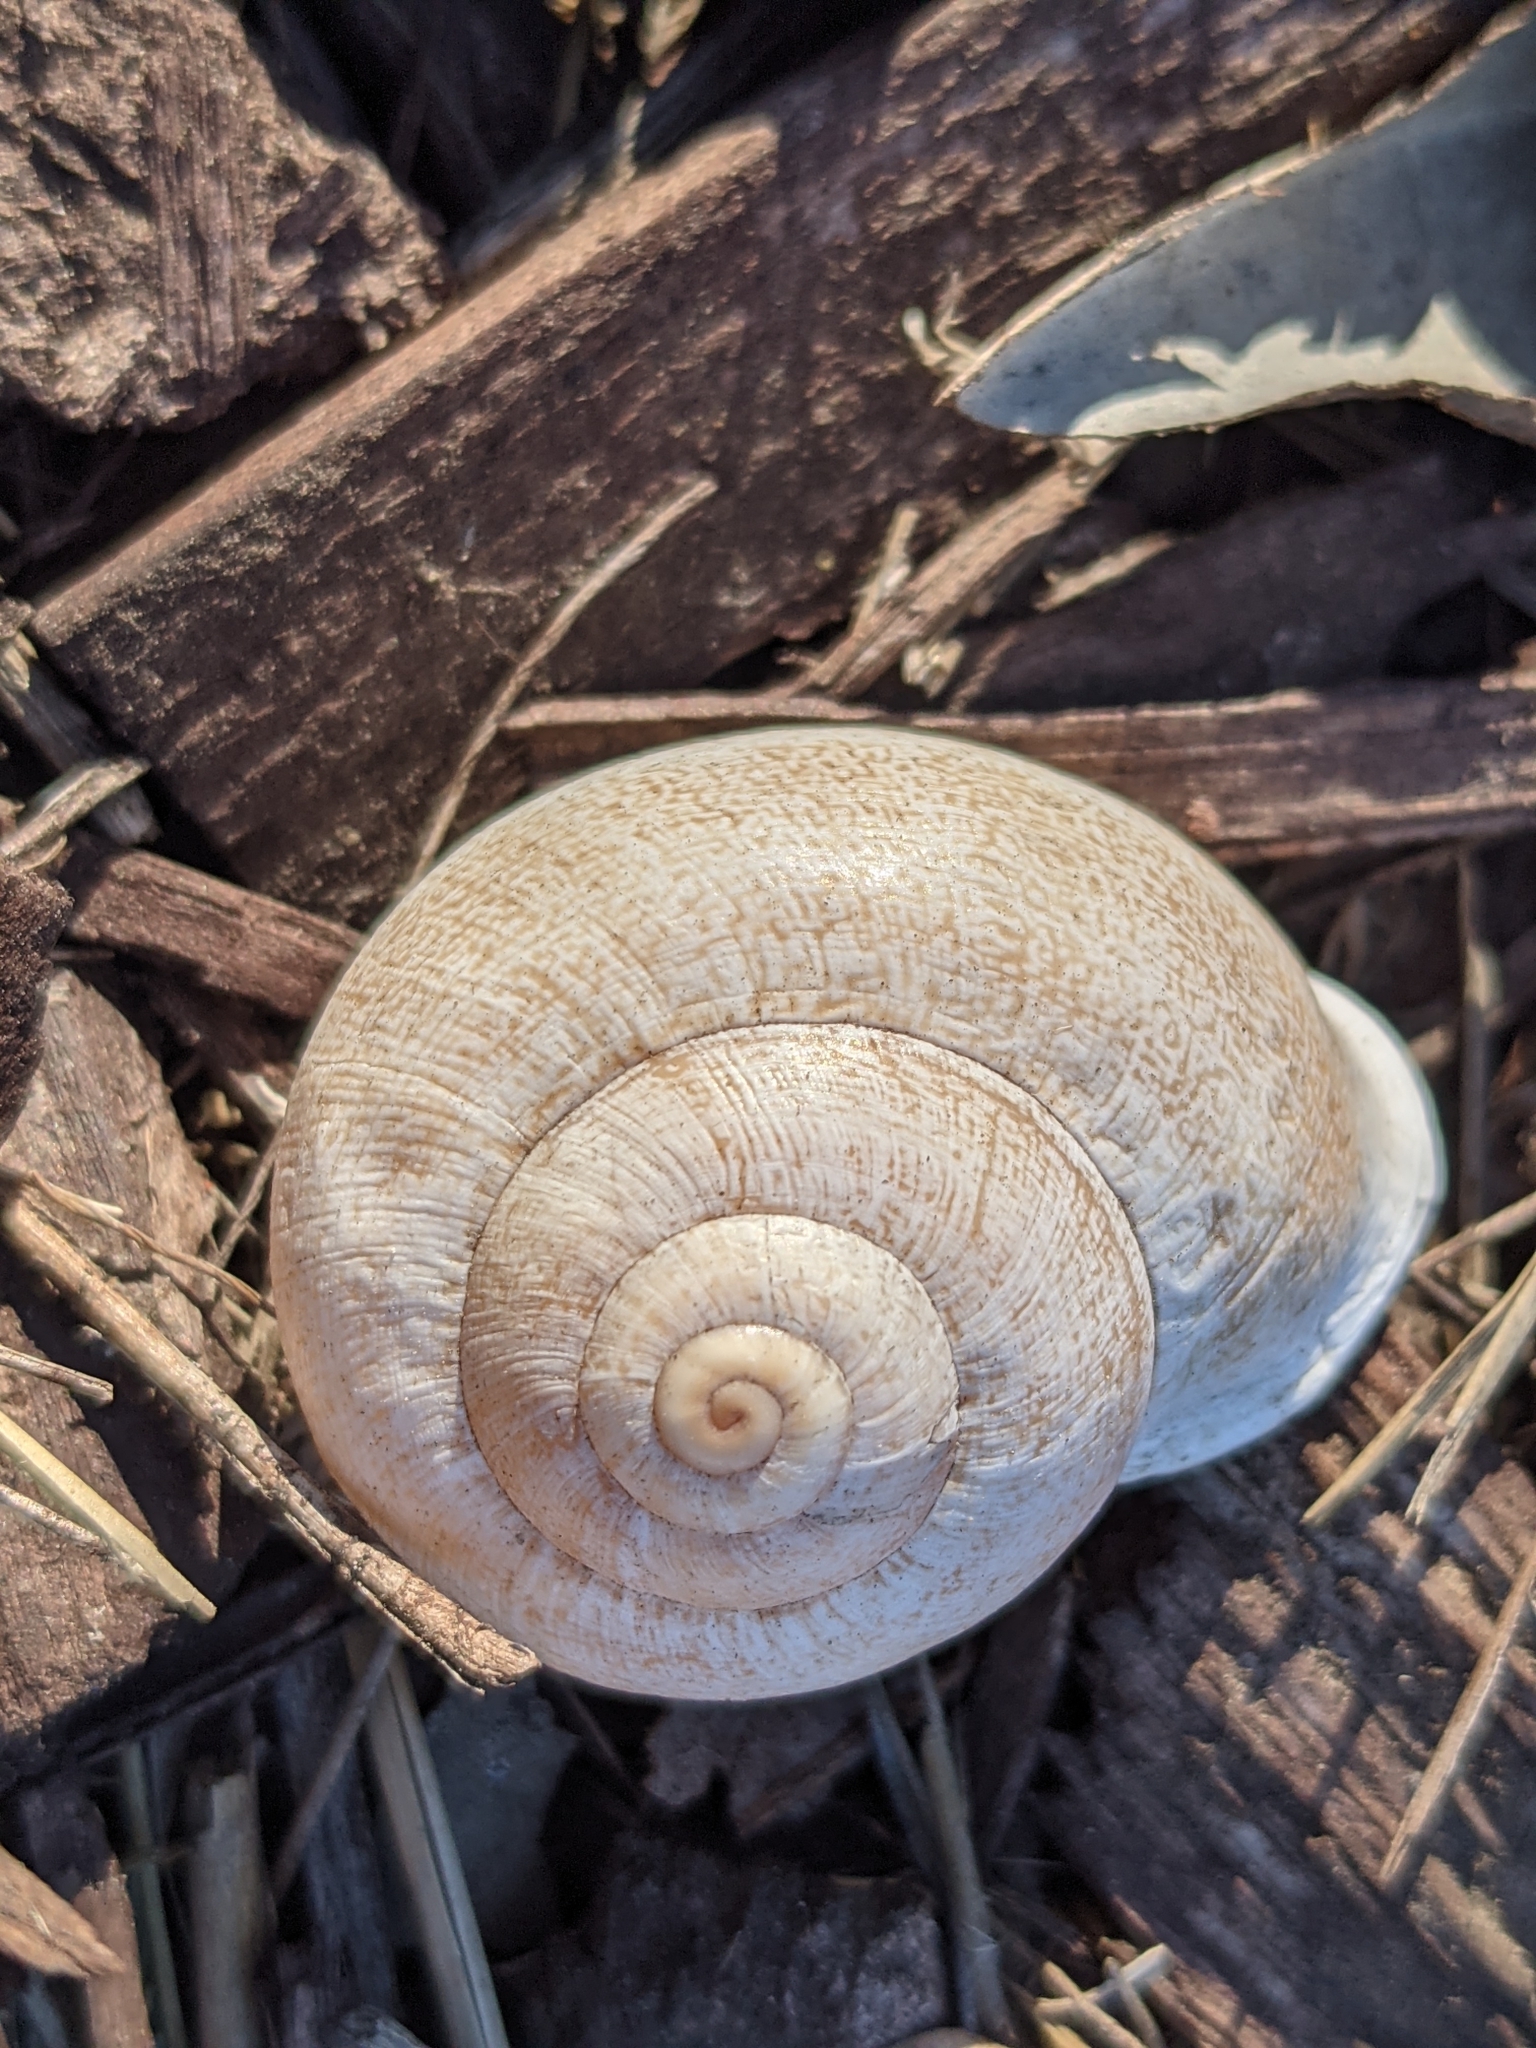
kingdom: Animalia
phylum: Mollusca
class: Gastropoda
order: Stylommatophora
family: Helicidae
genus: Otala
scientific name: Otala lactea
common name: Milk snail
